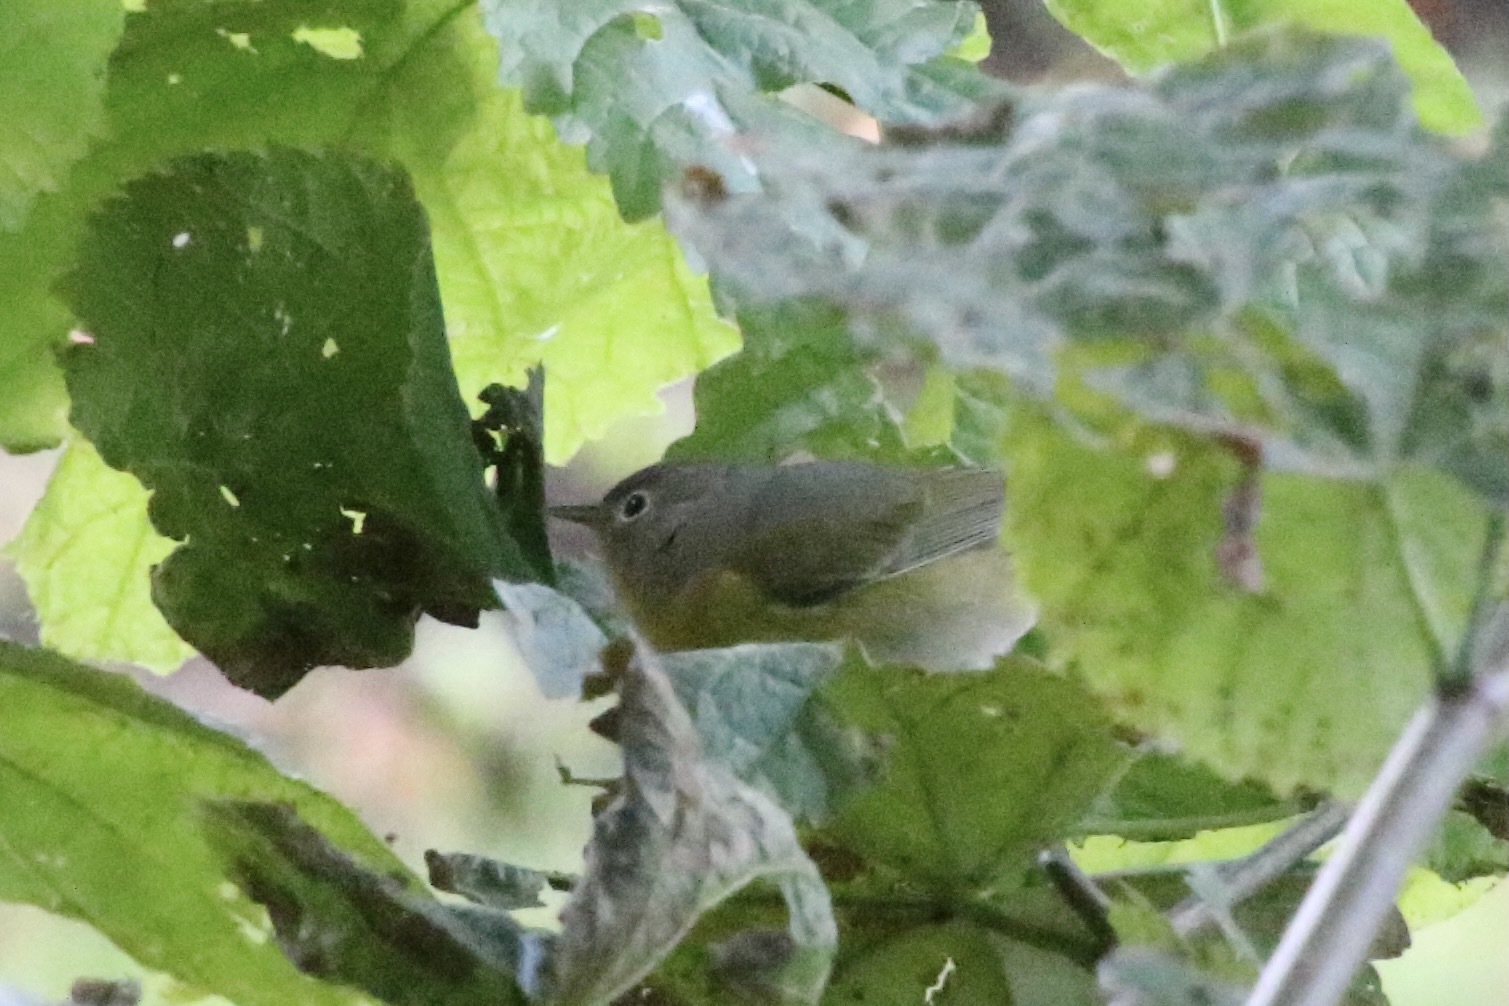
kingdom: Animalia
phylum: Chordata
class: Aves
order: Passeriformes
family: Parulidae
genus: Leiothlypis
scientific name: Leiothlypis ruficapilla
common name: Nashville warbler
